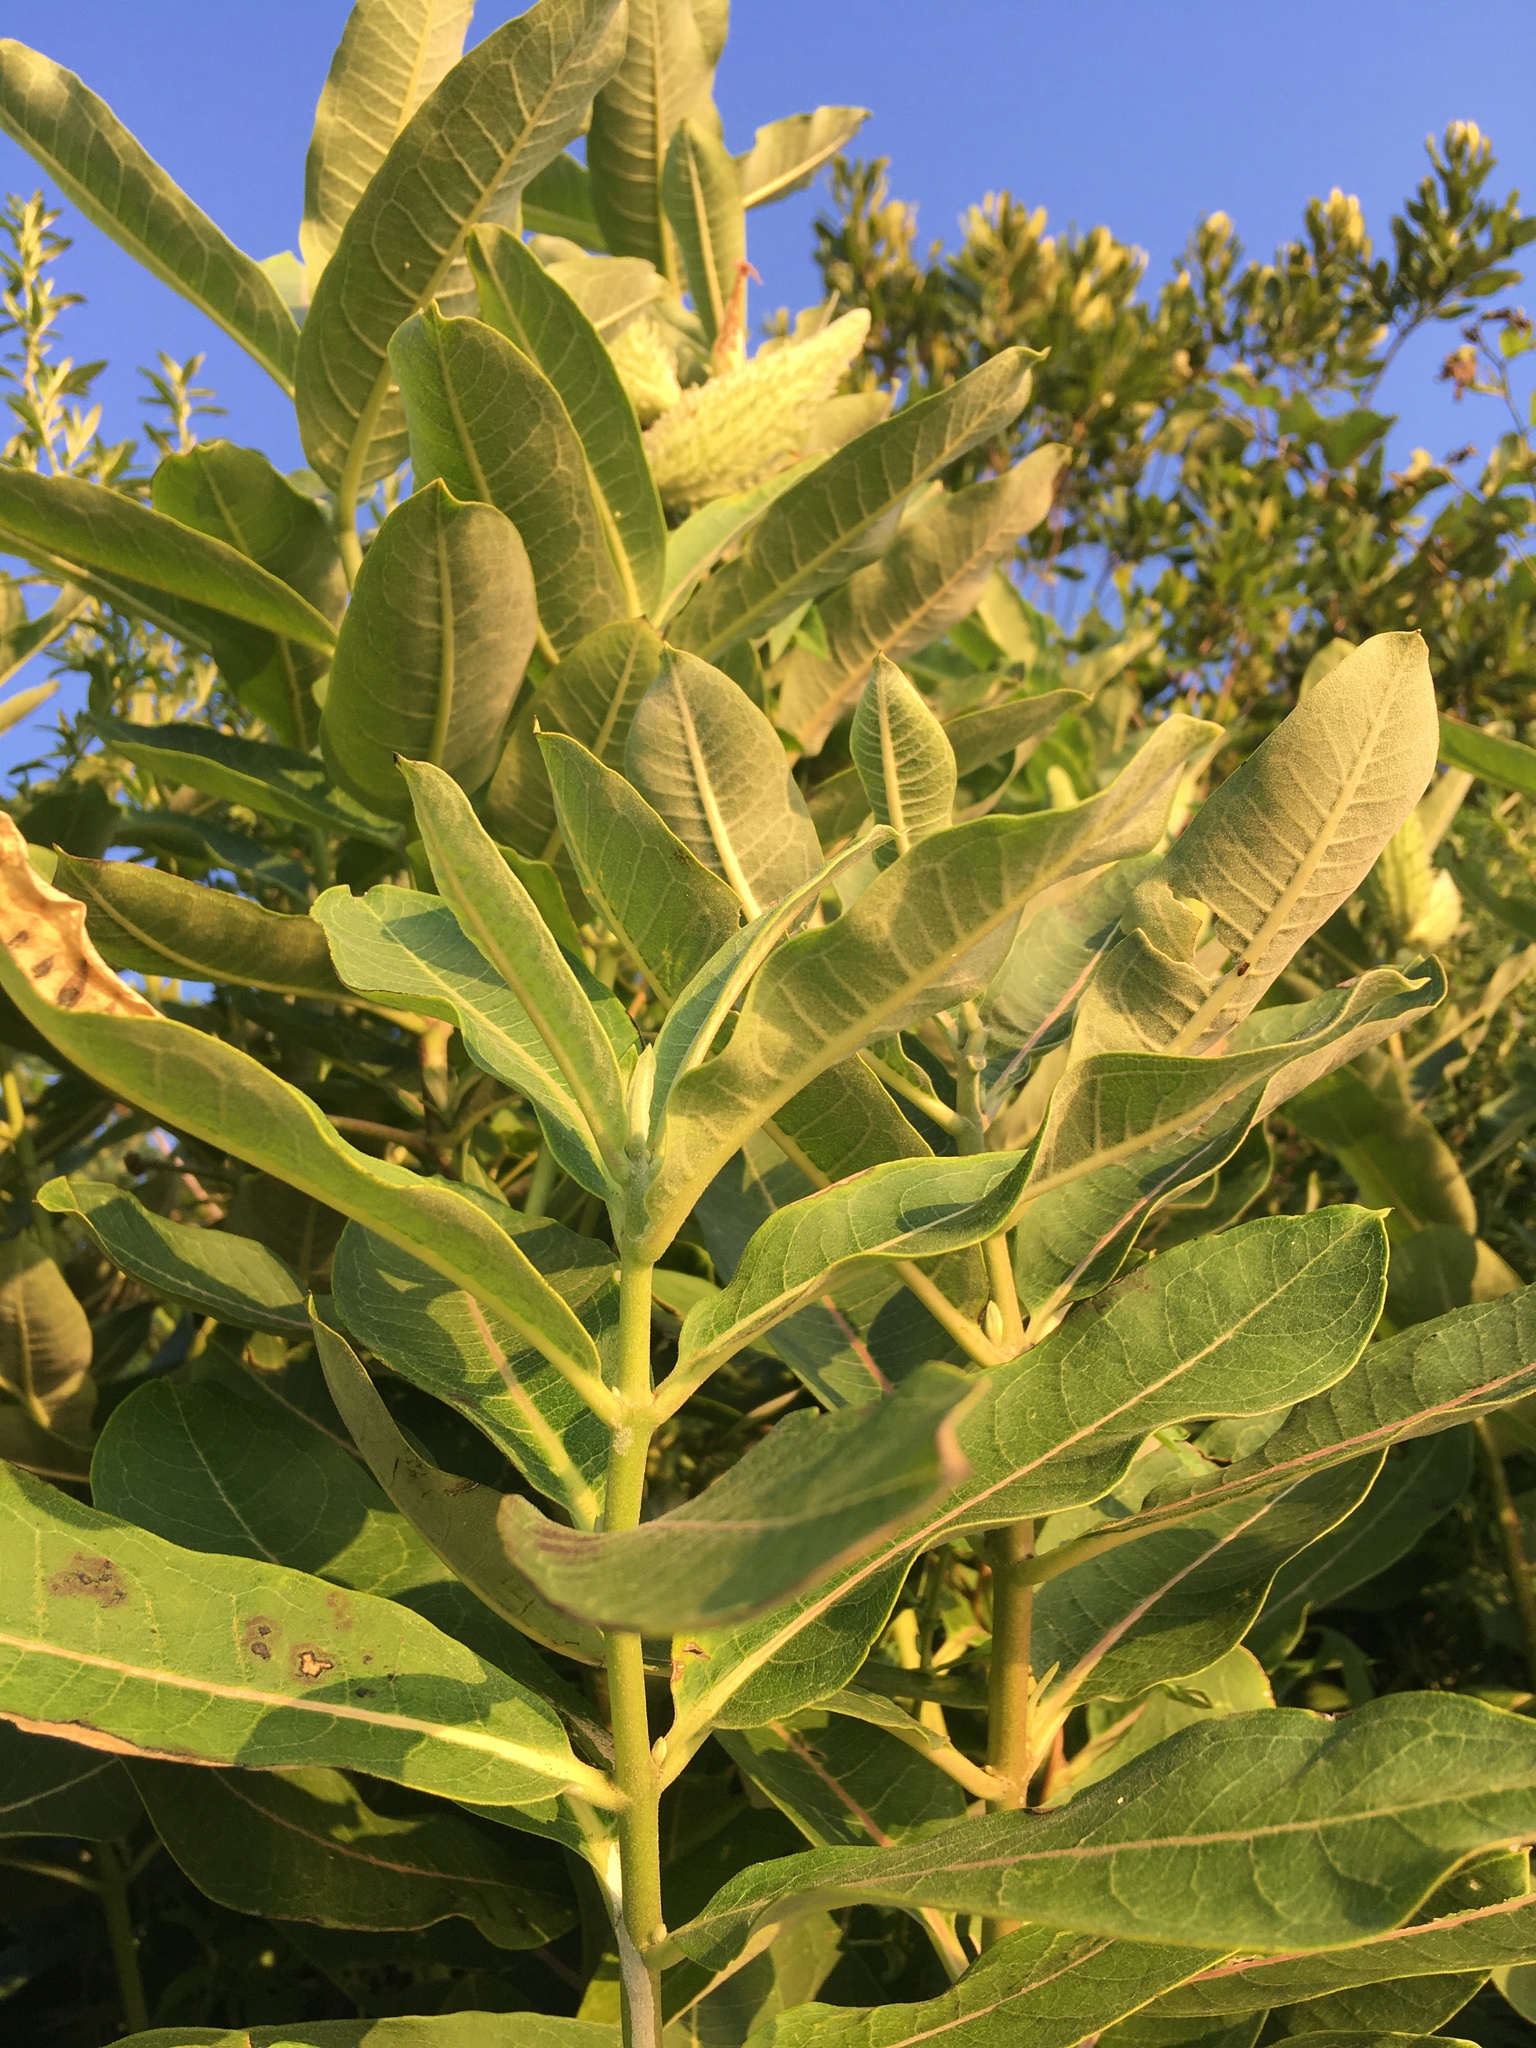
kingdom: Plantae
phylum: Tracheophyta
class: Magnoliopsida
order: Gentianales
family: Apocynaceae
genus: Asclepias
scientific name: Asclepias syriaca
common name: Common milkweed
